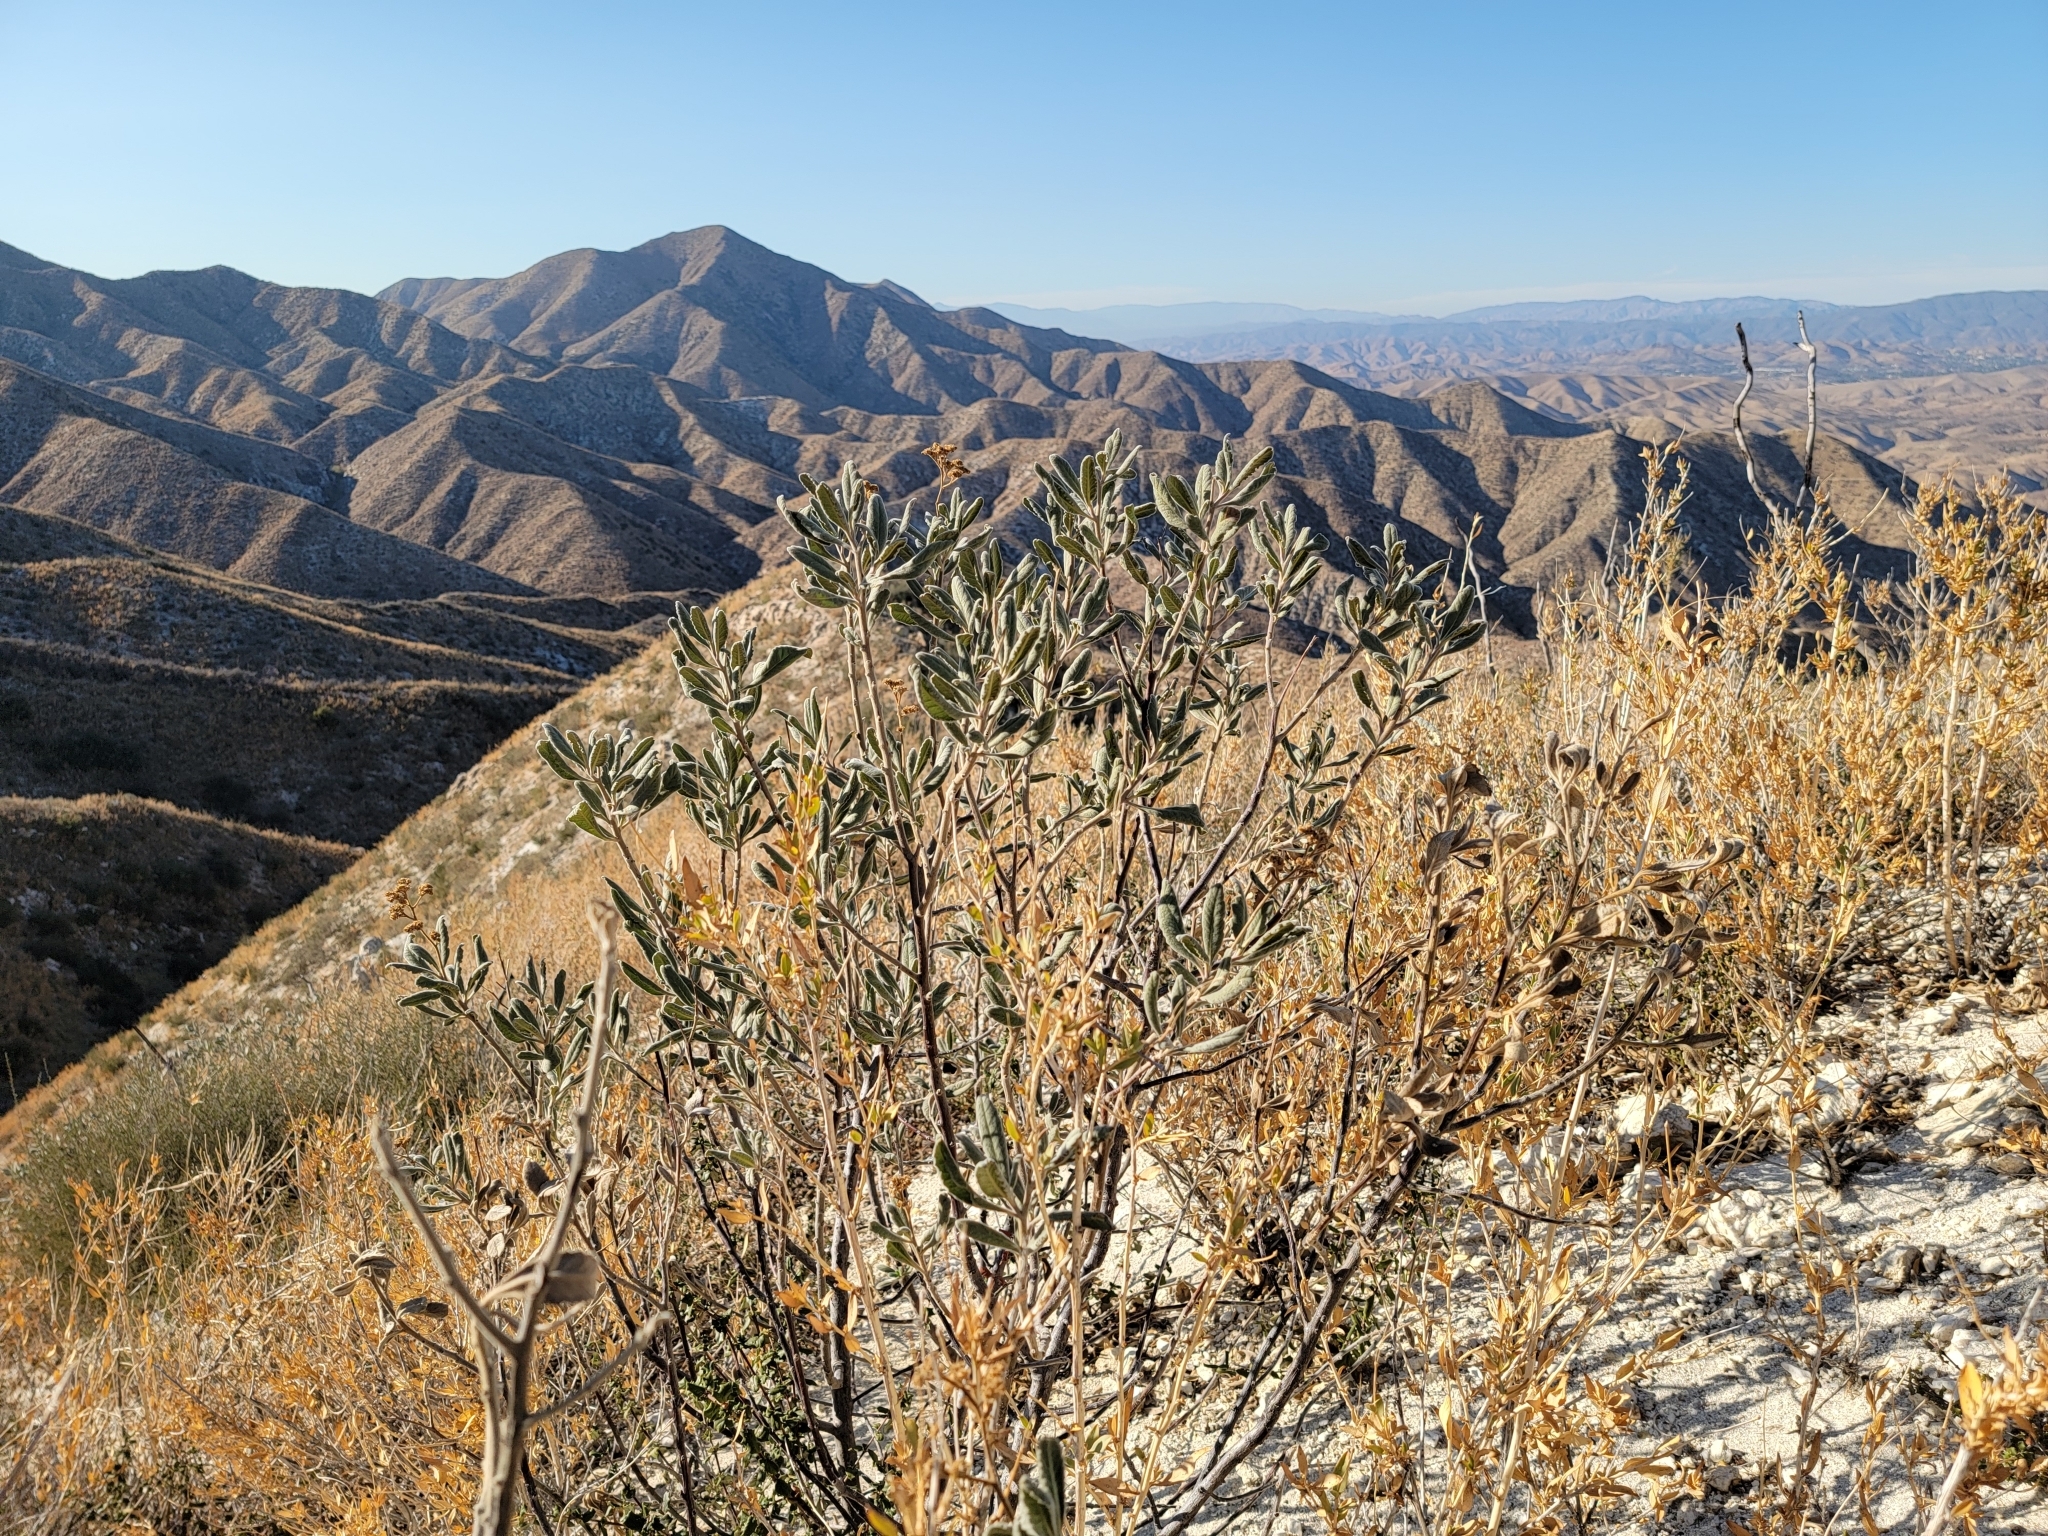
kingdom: Plantae
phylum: Tracheophyta
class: Magnoliopsida
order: Boraginales
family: Namaceae
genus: Eriodictyon
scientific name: Eriodictyon crassifolium
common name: Thick-leaf yerba-santa
